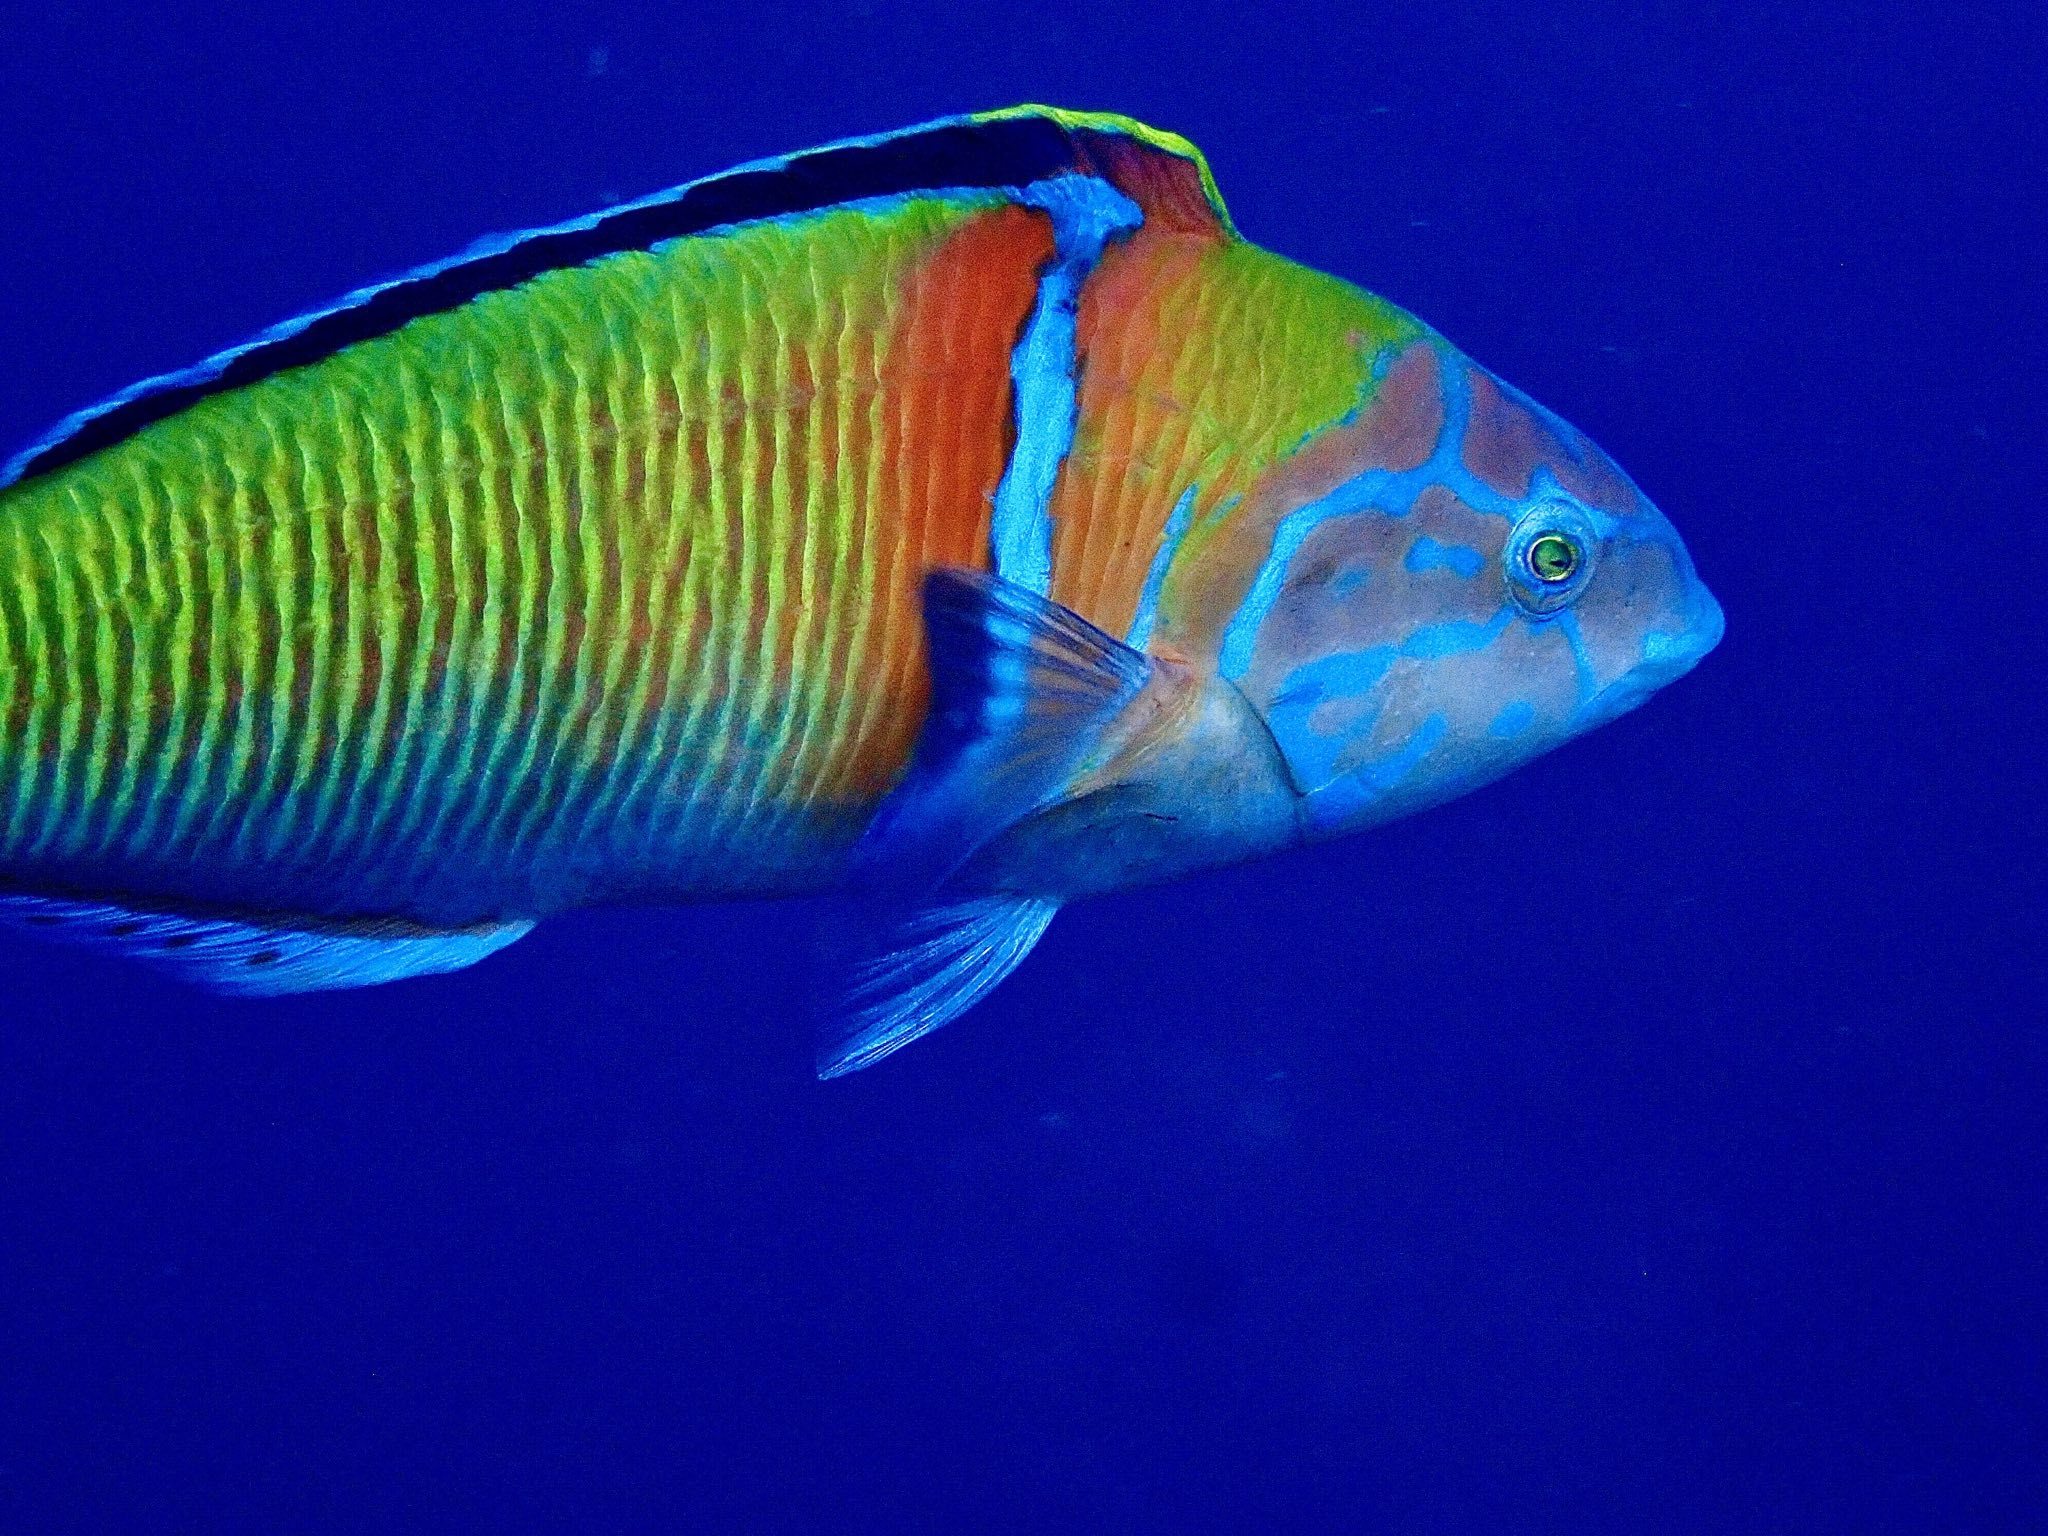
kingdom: Animalia
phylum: Chordata
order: Perciformes
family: Labridae
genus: Thalassoma
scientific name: Thalassoma pavo
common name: Ornate wrasse
